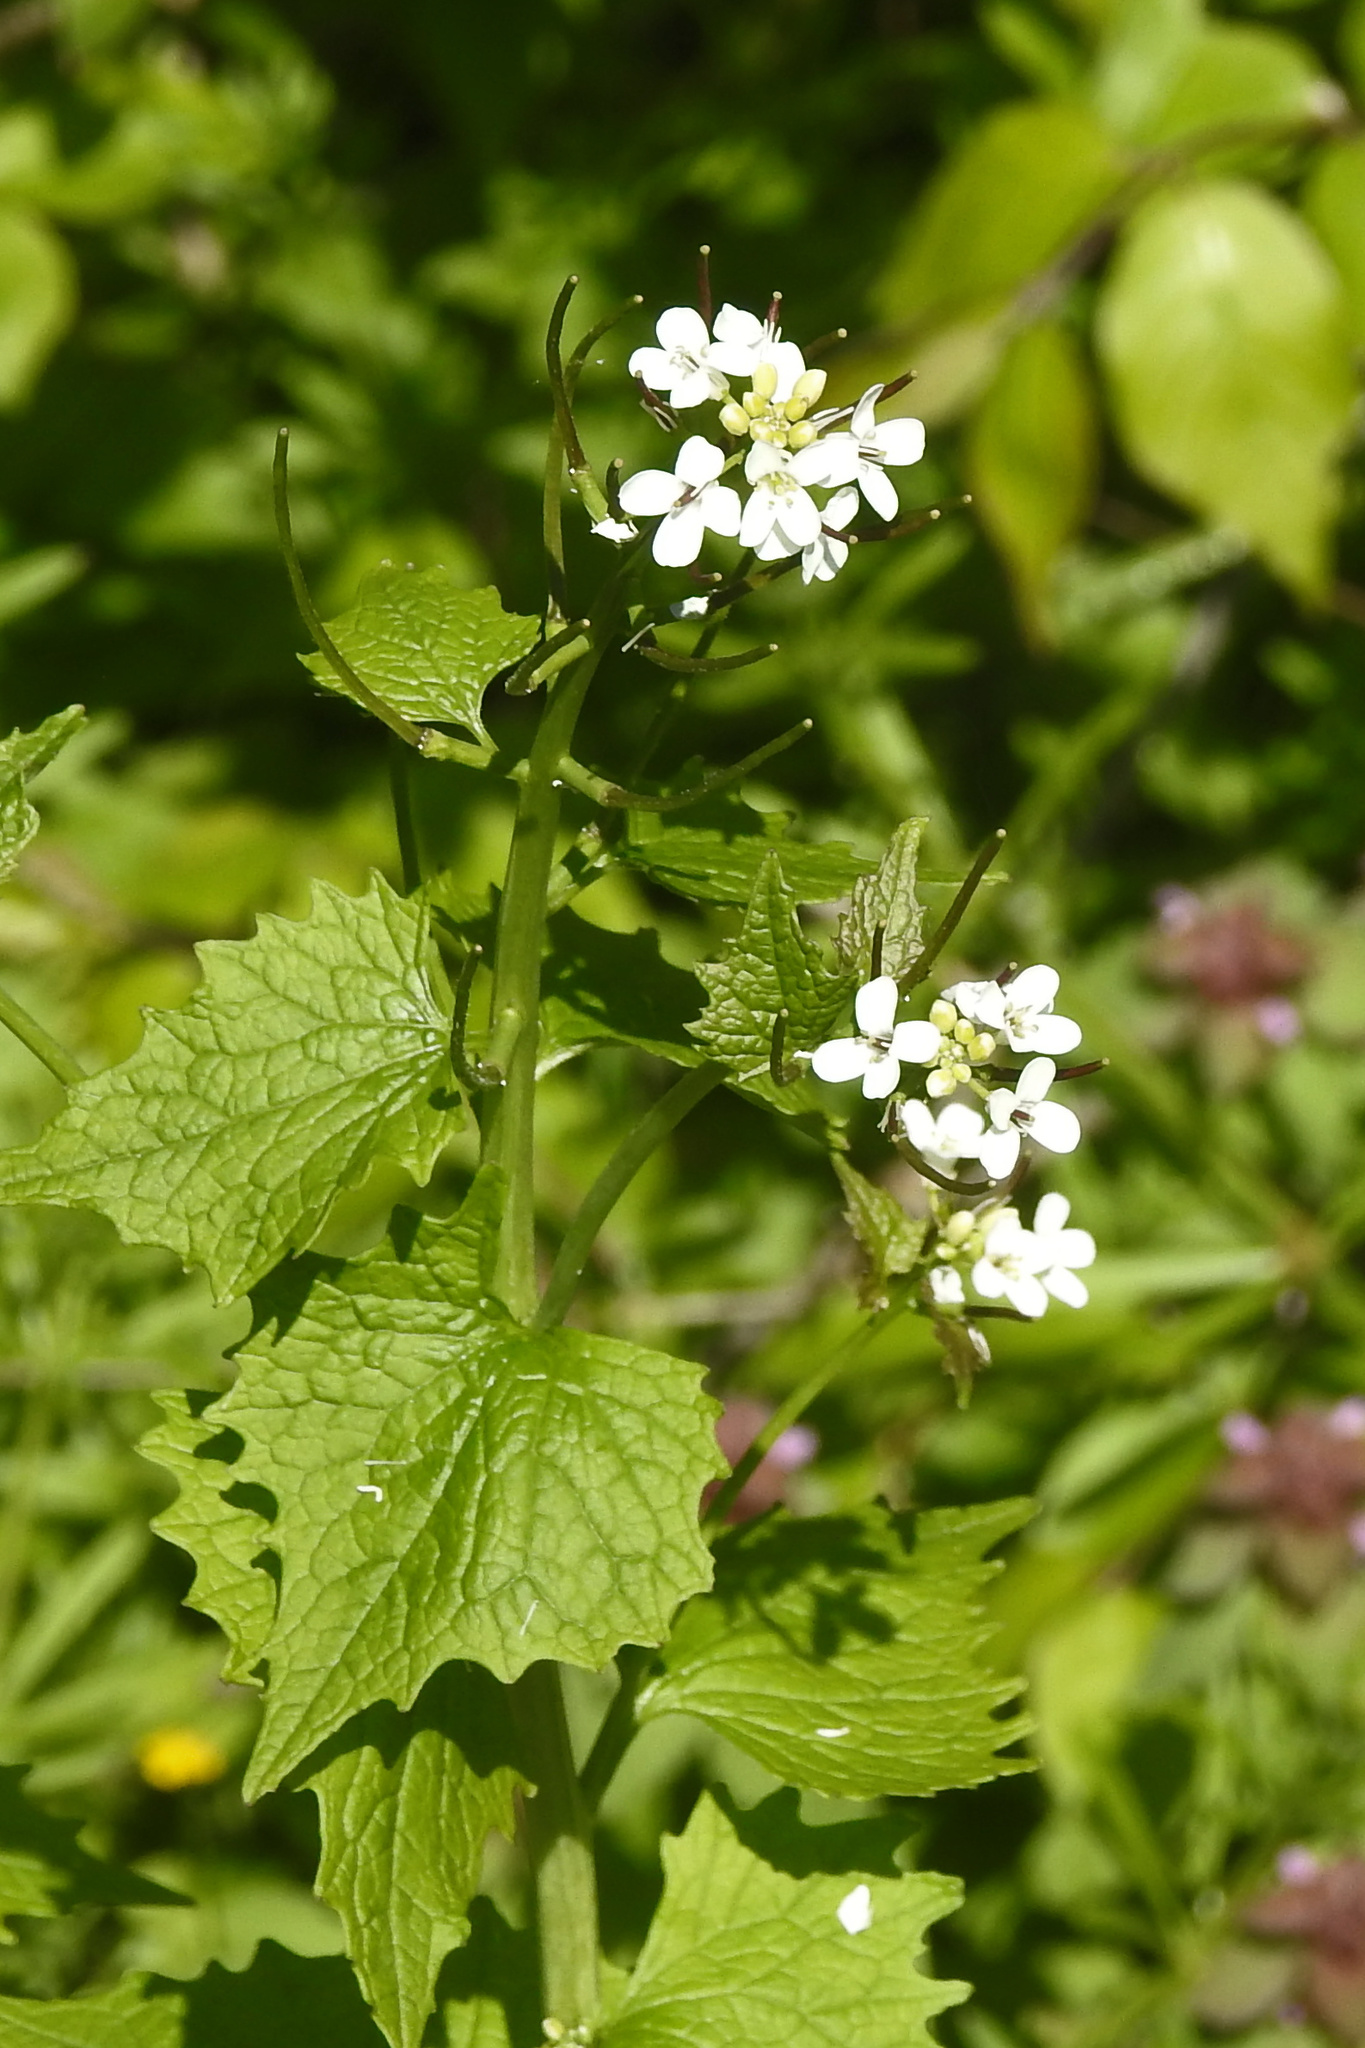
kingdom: Plantae
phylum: Tracheophyta
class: Magnoliopsida
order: Brassicales
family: Brassicaceae
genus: Alliaria
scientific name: Alliaria petiolata
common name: Garlic mustard
